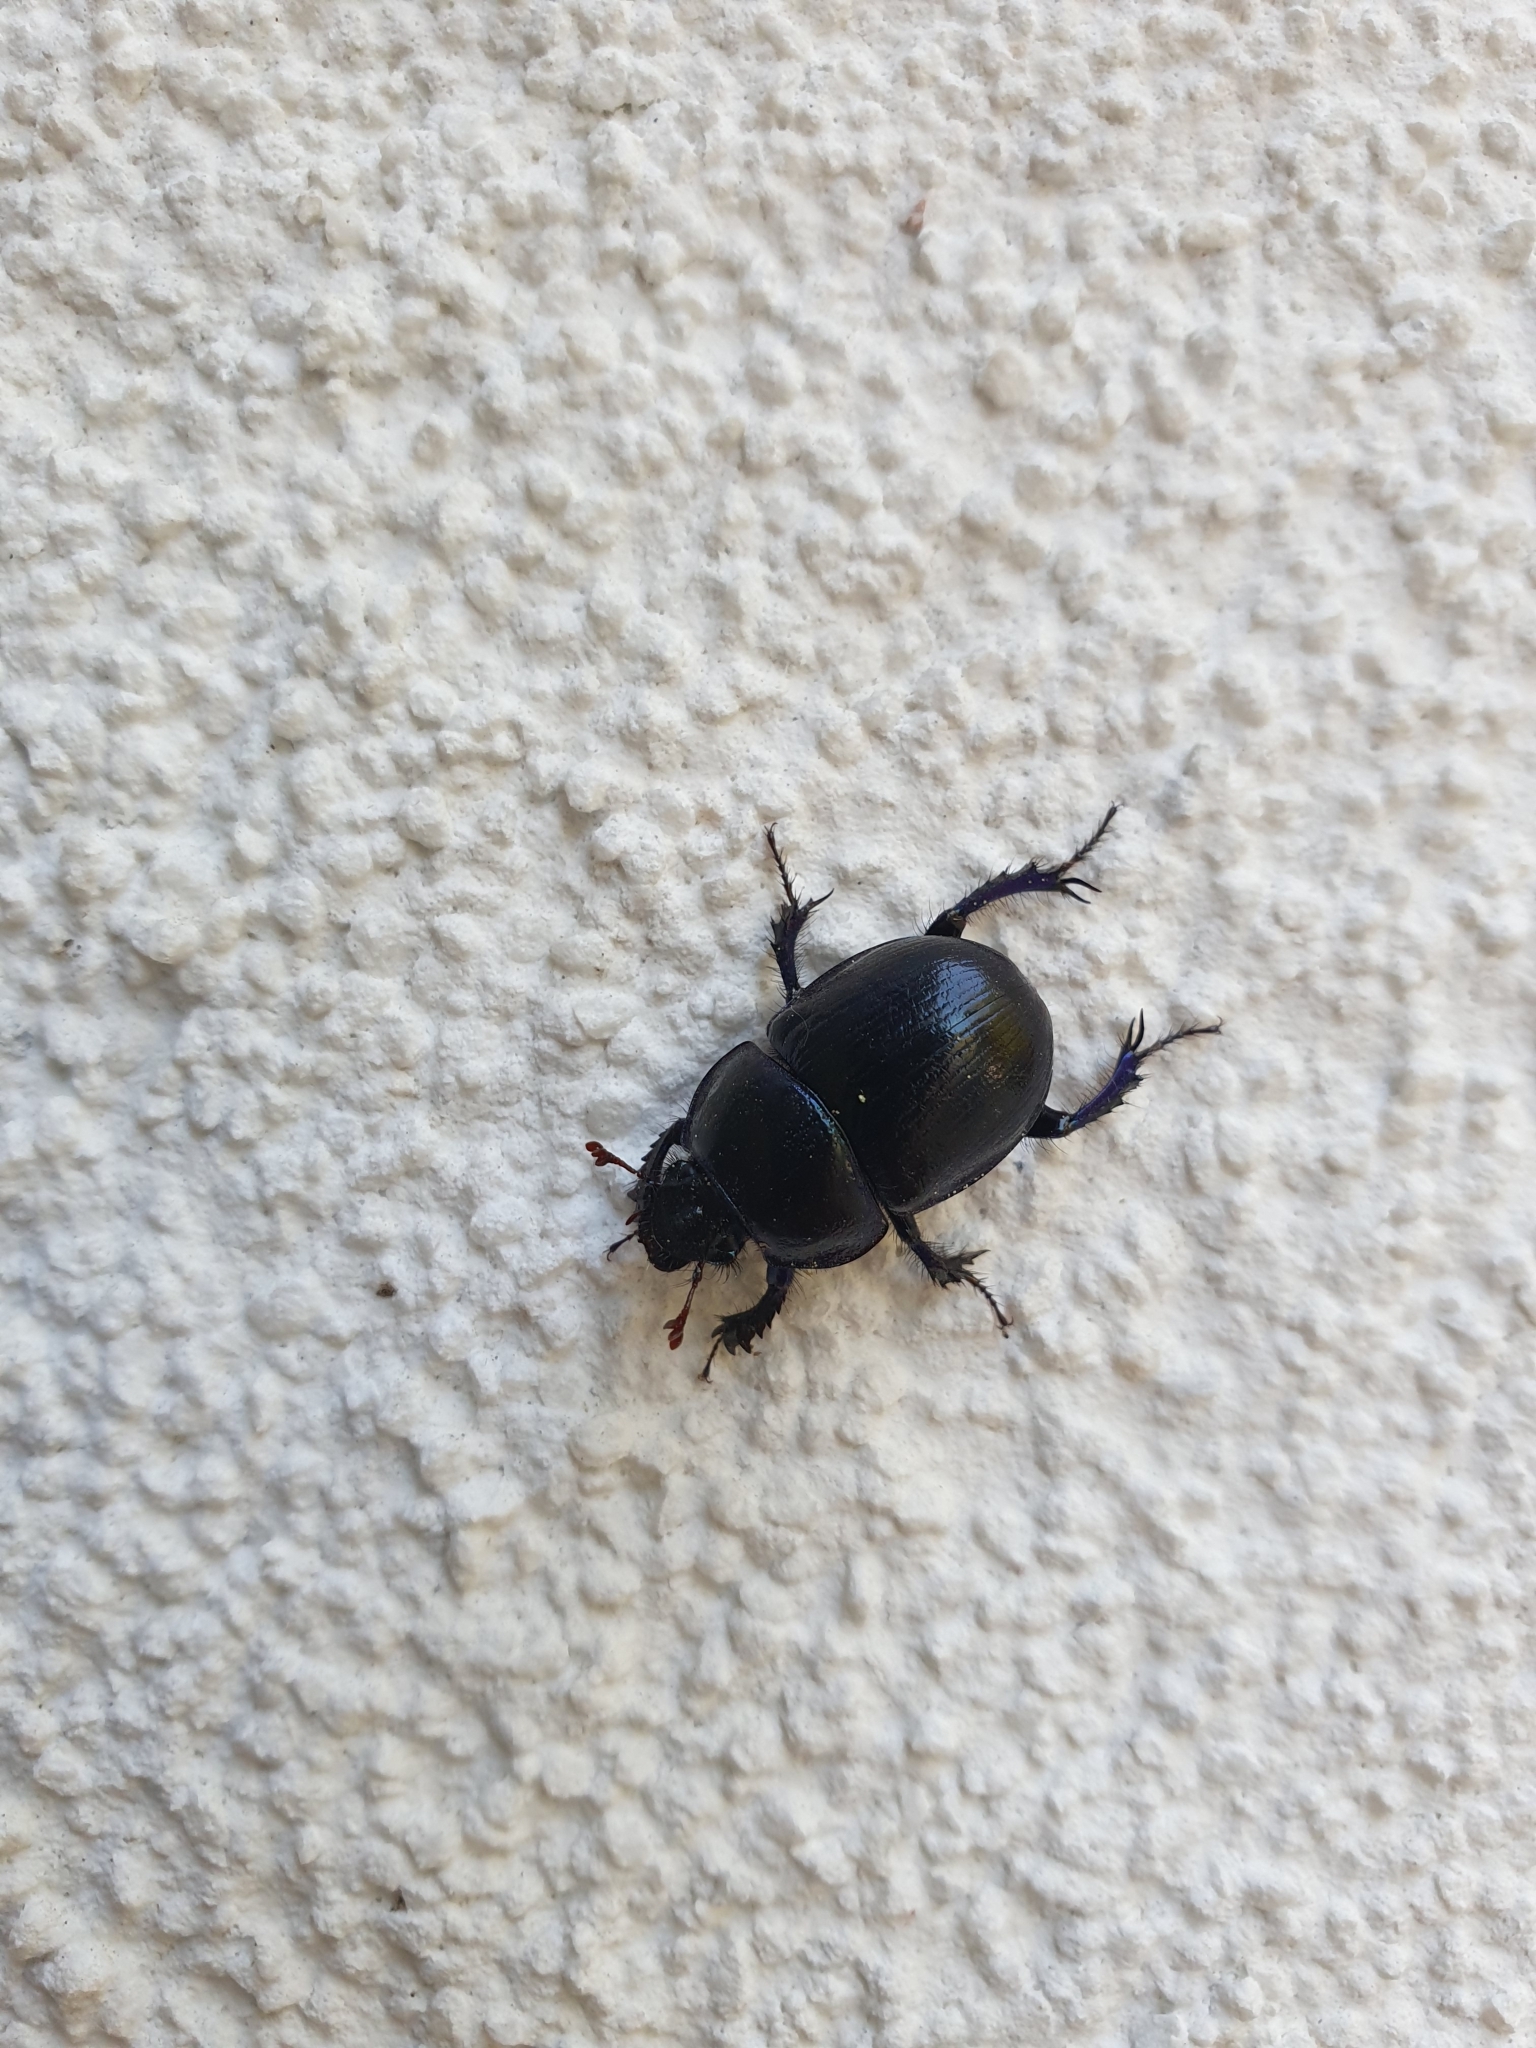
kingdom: Animalia
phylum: Arthropoda
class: Insecta
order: Coleoptera
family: Geotrupidae
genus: Anoplotrupes
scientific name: Anoplotrupes stercorosus
